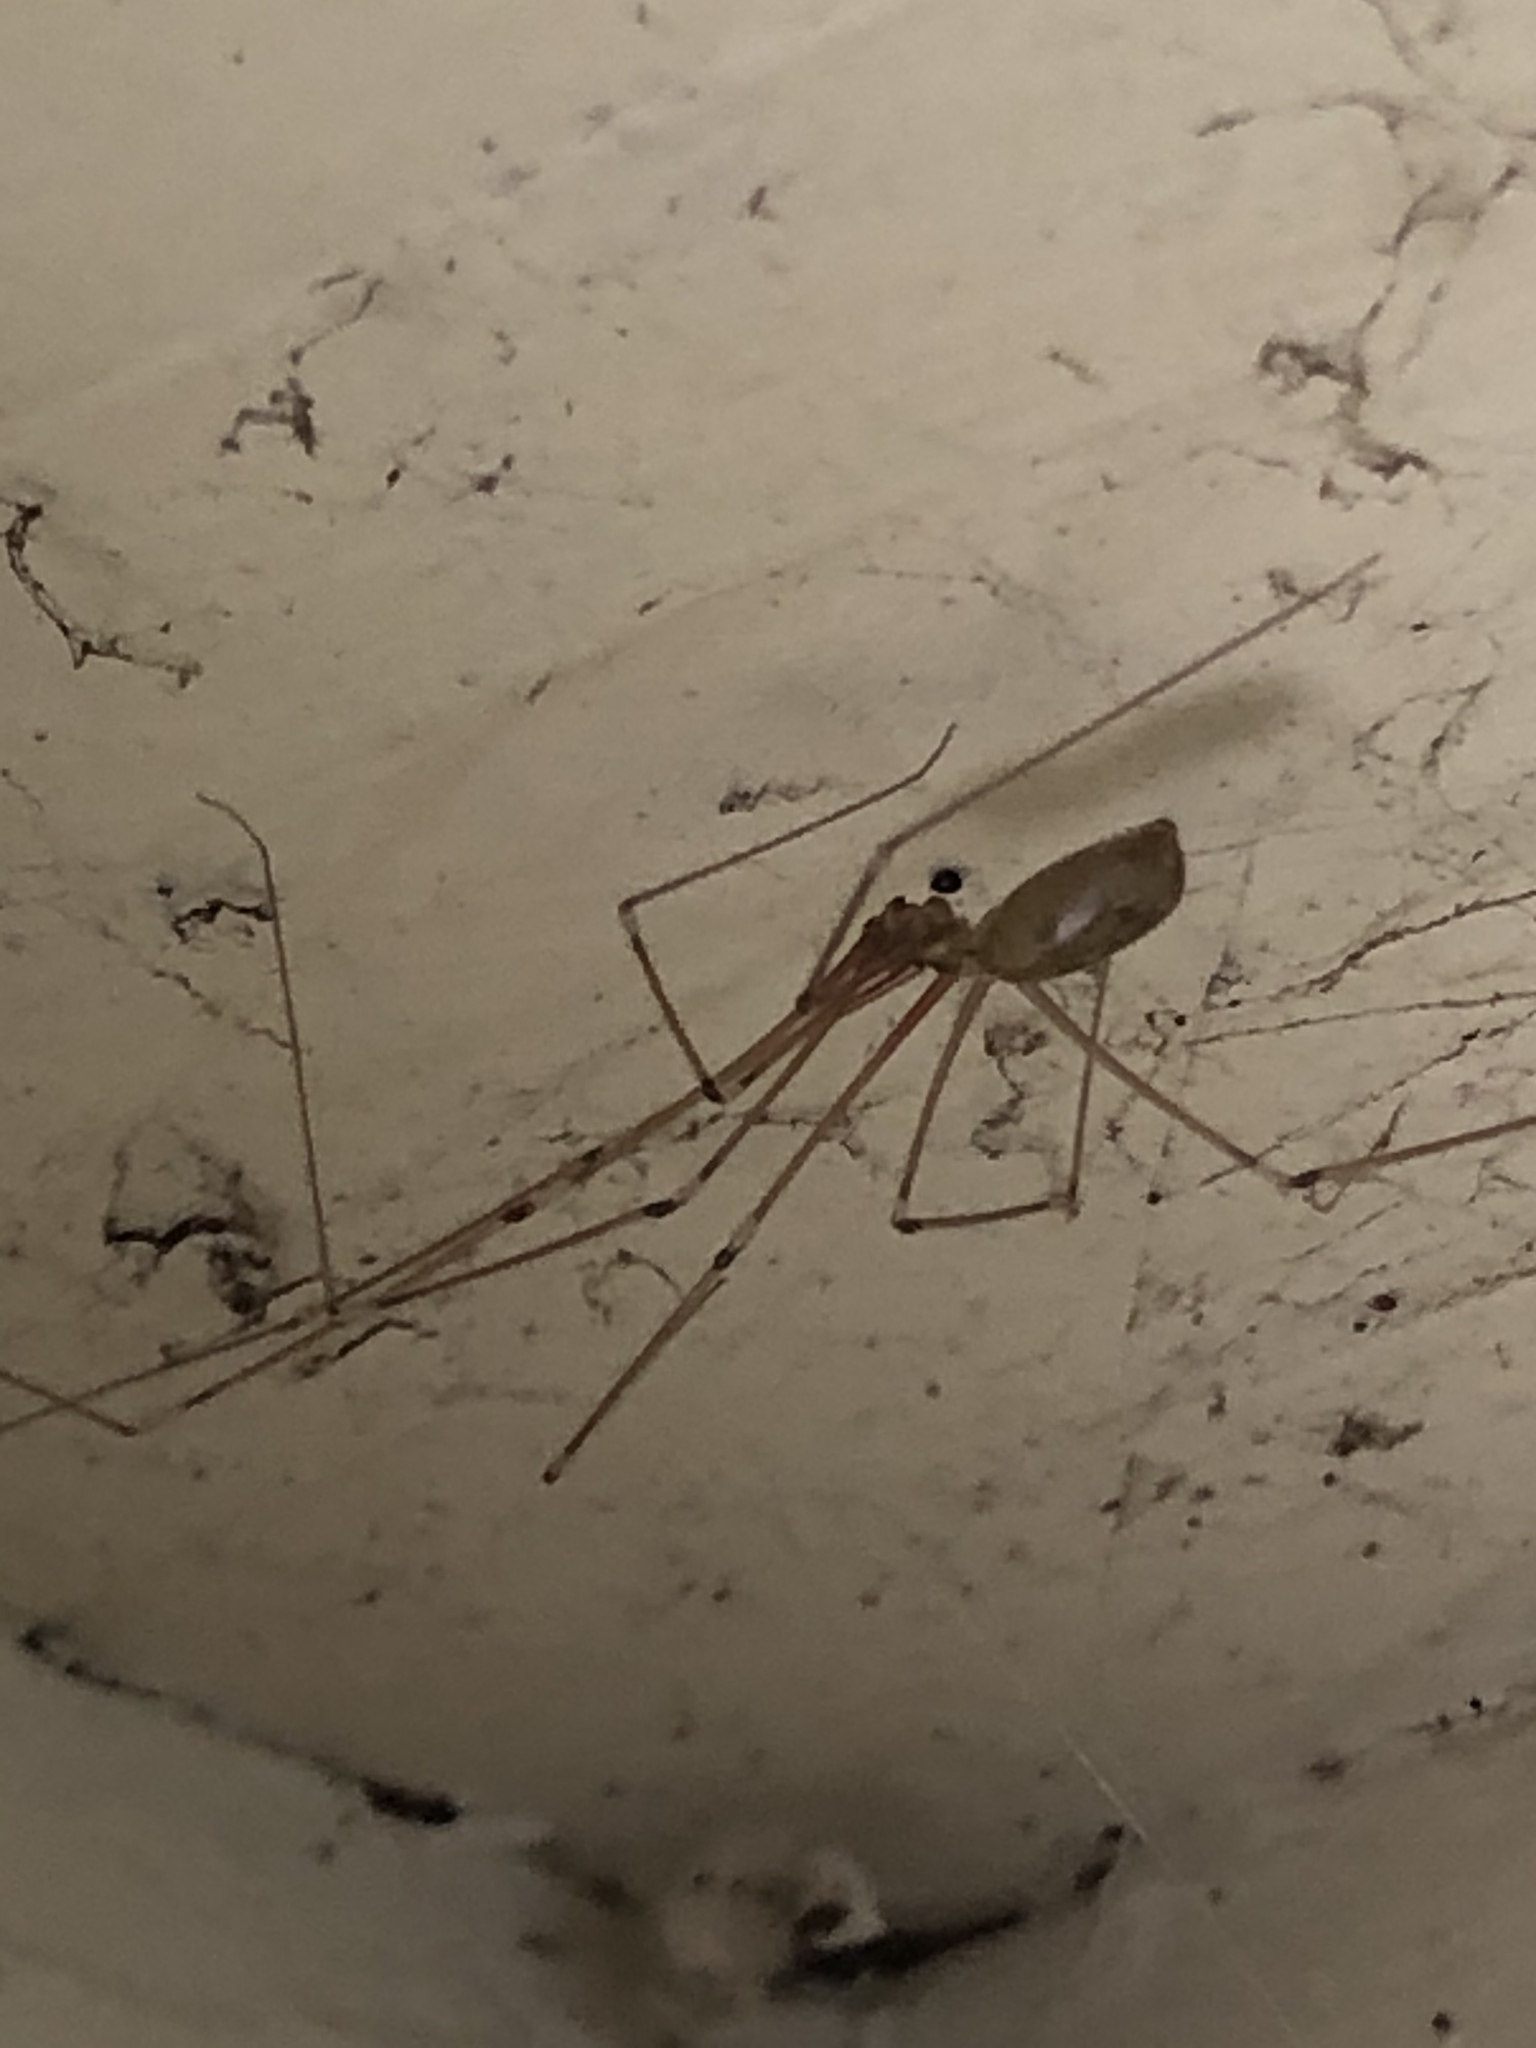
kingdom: Animalia
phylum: Arthropoda
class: Arachnida
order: Araneae
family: Pholcidae
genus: Pholcus
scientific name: Pholcus phalangioides
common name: Longbodied cellar spider
